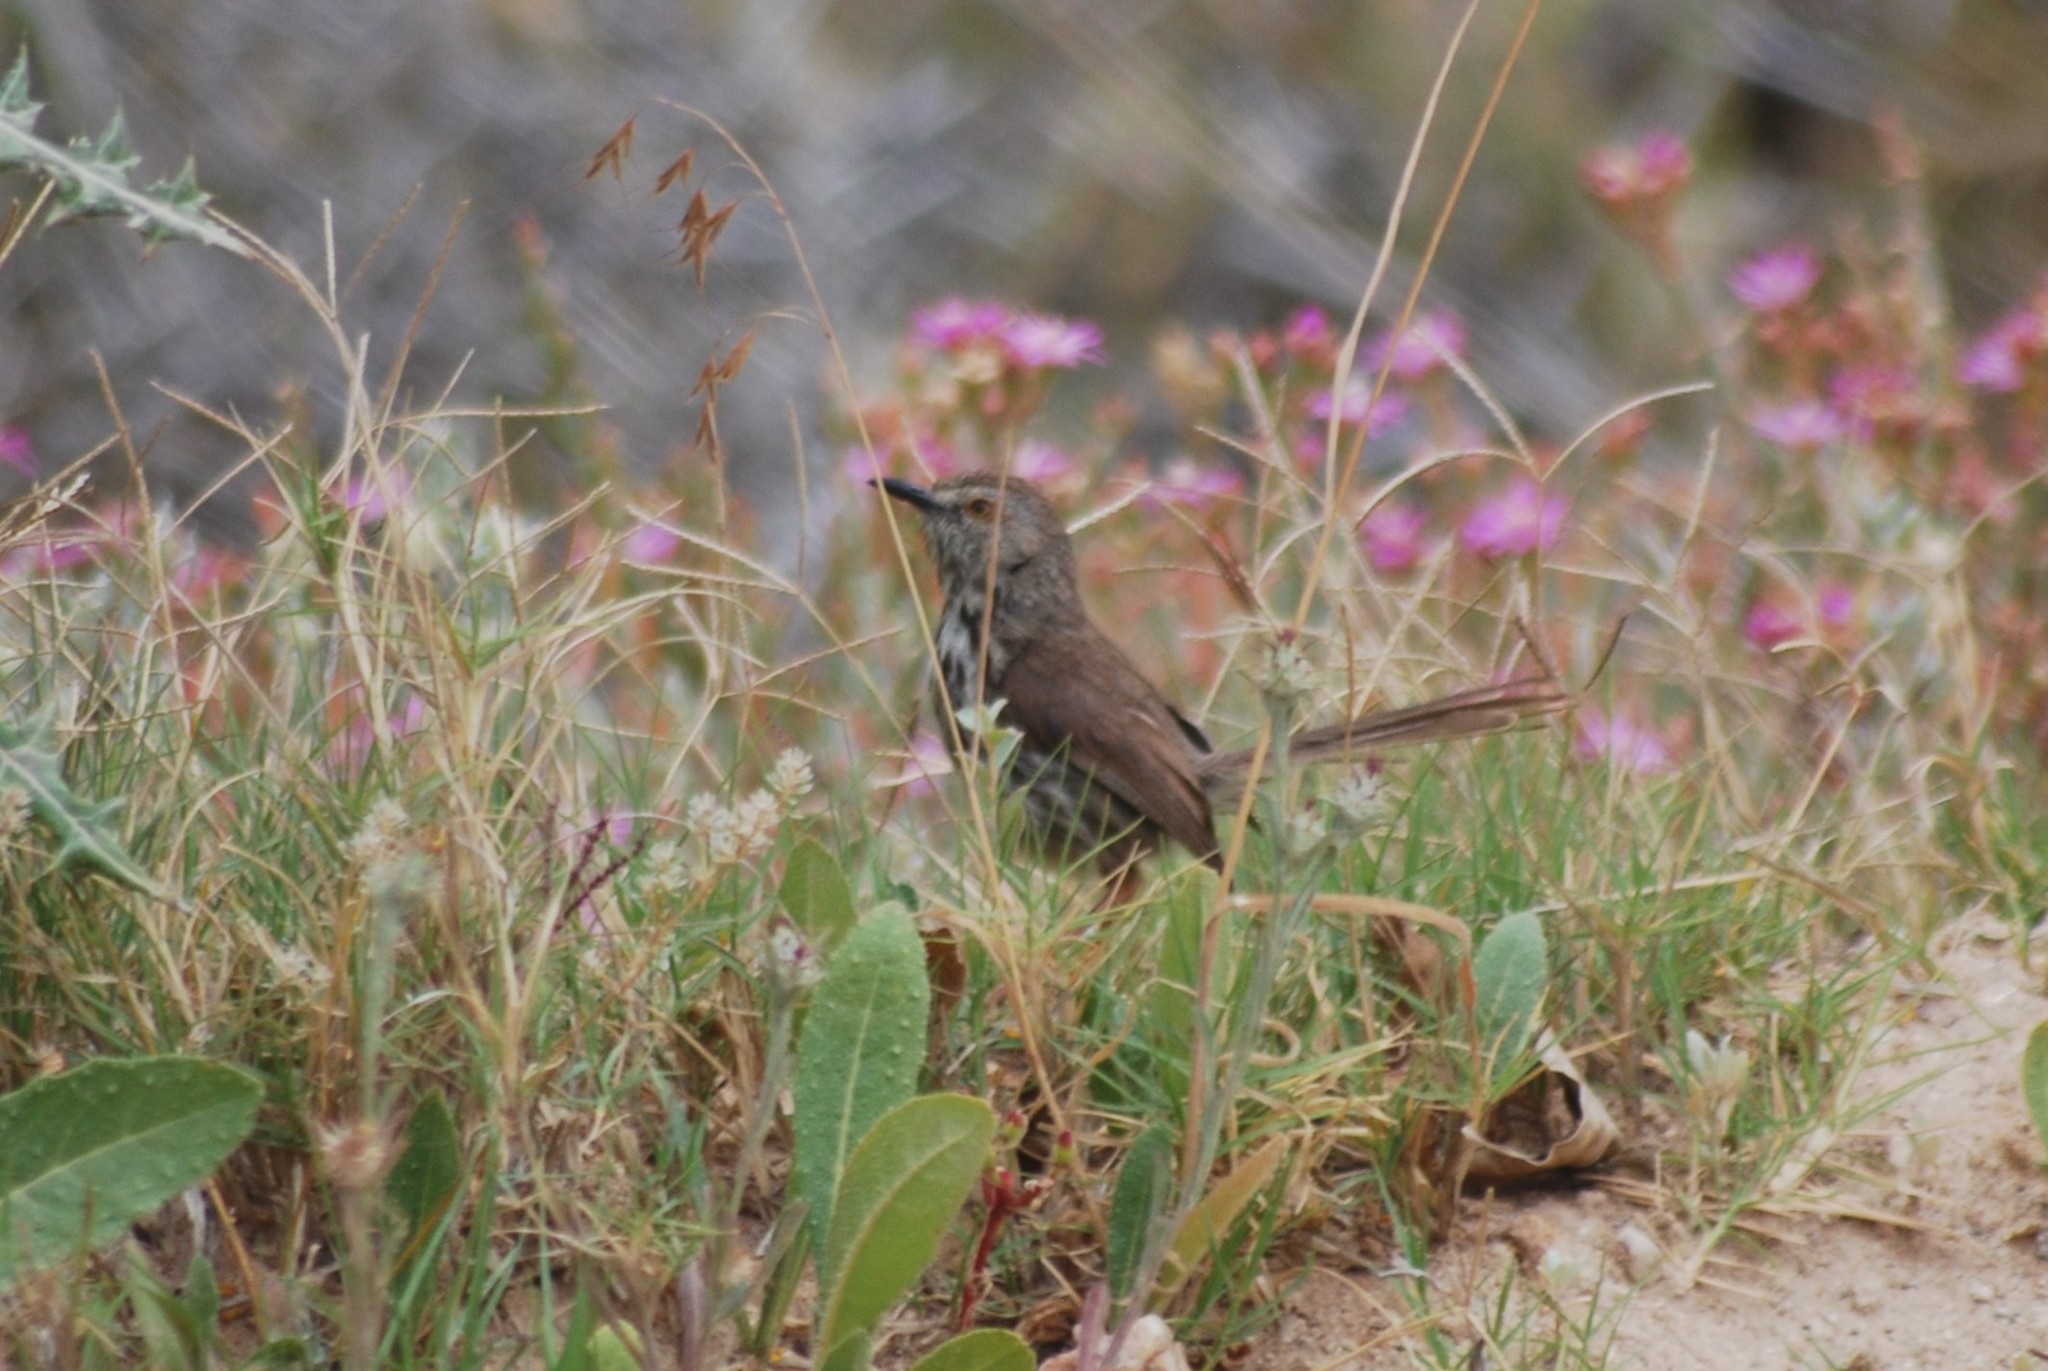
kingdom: Animalia
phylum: Chordata
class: Aves
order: Passeriformes
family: Cisticolidae
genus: Prinia
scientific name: Prinia maculosa
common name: Karoo prinia
